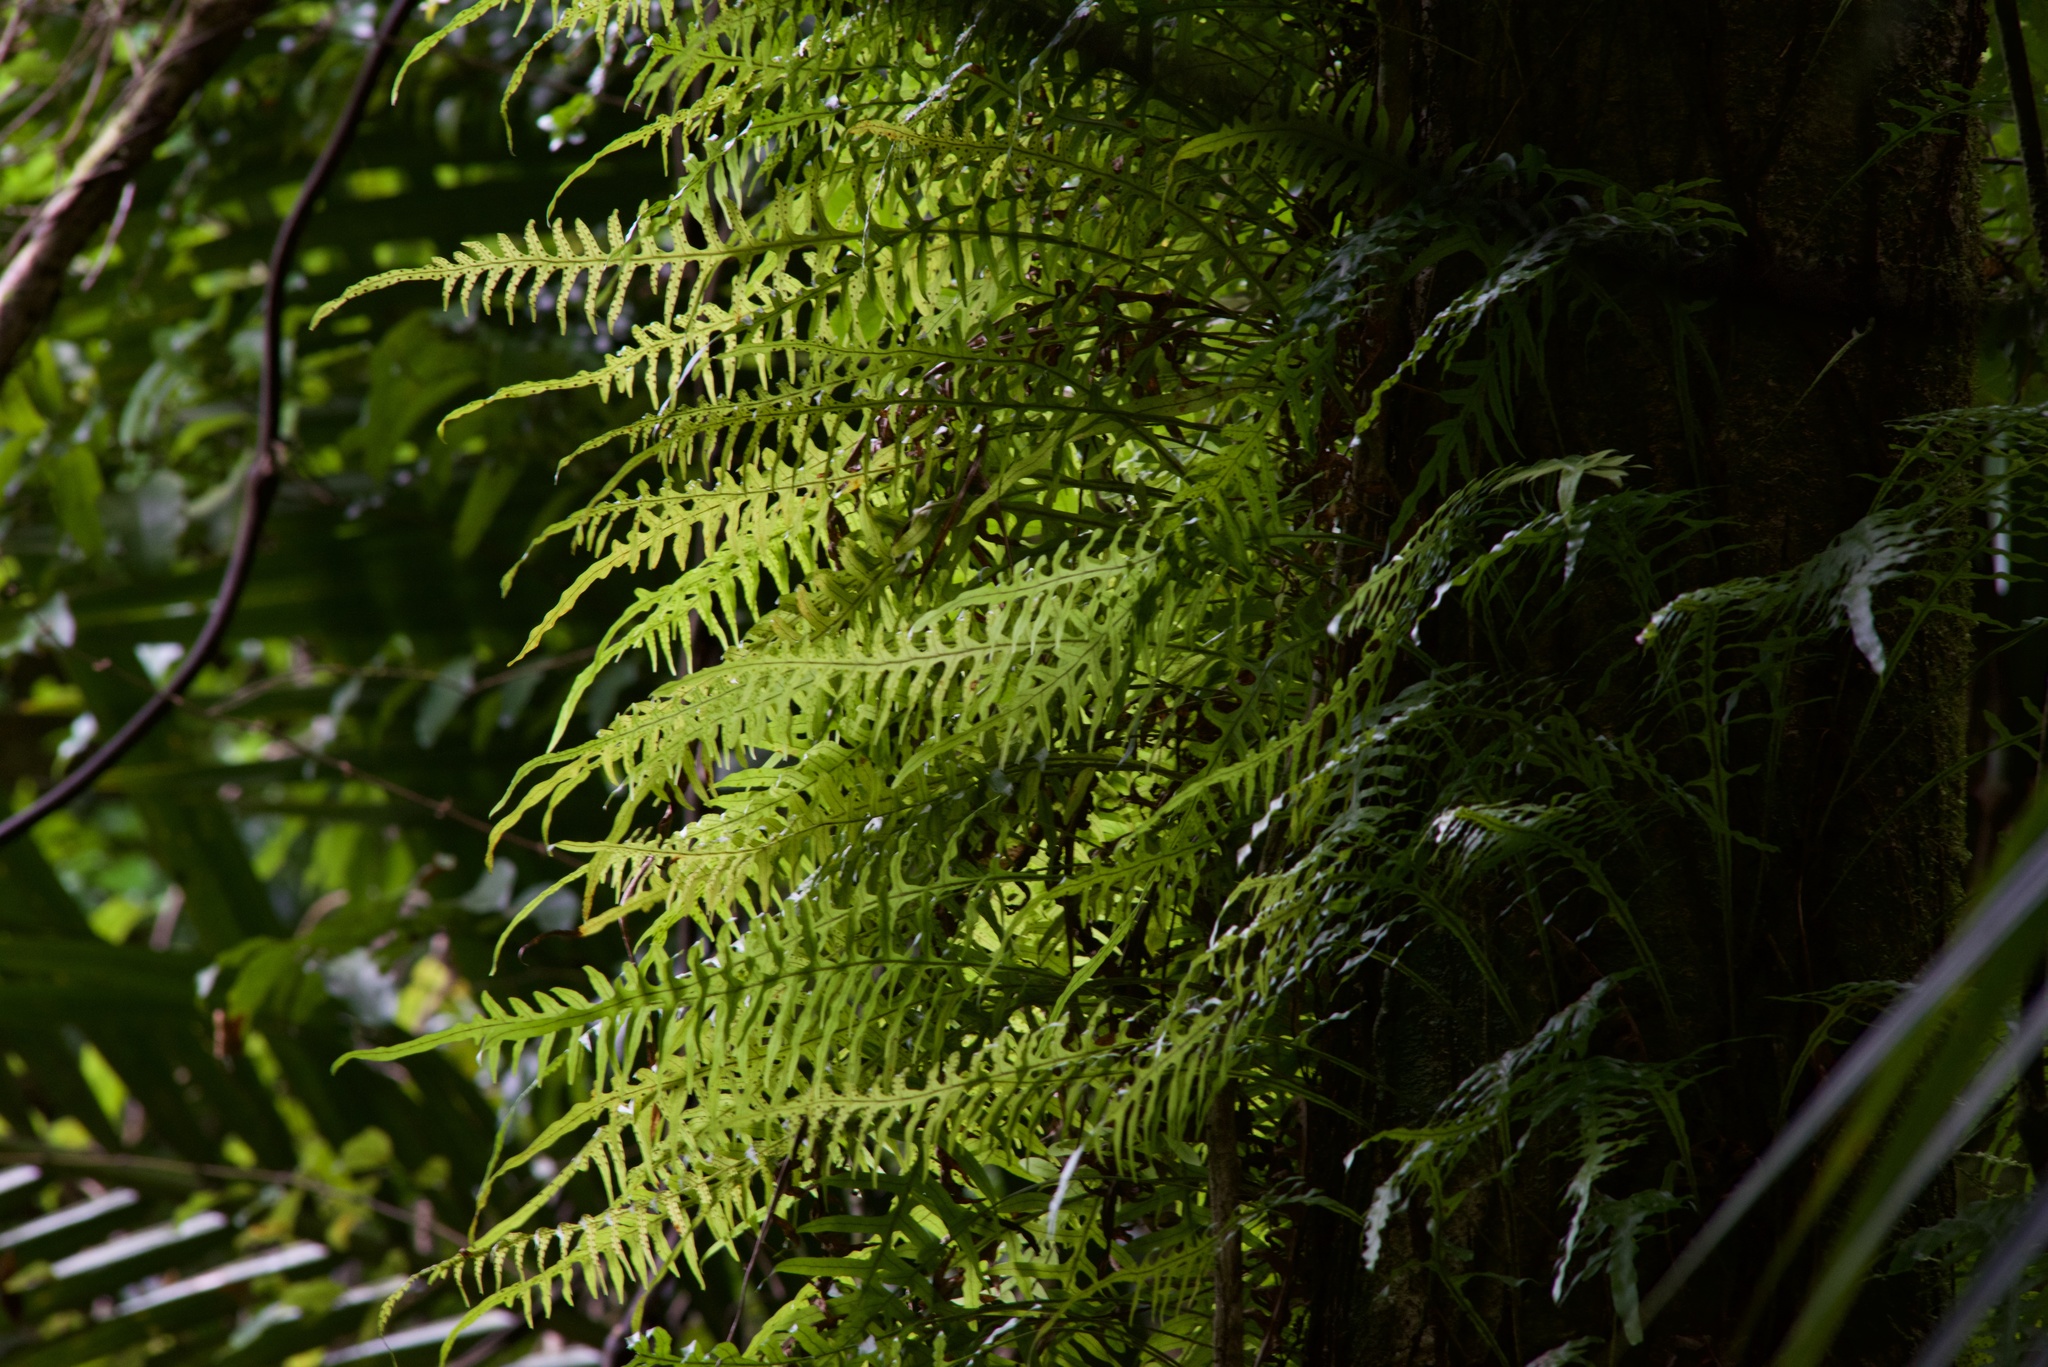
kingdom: Plantae
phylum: Tracheophyta
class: Polypodiopsida
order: Polypodiales
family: Polypodiaceae
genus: Lecanopteris
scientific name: Lecanopteris scandens
